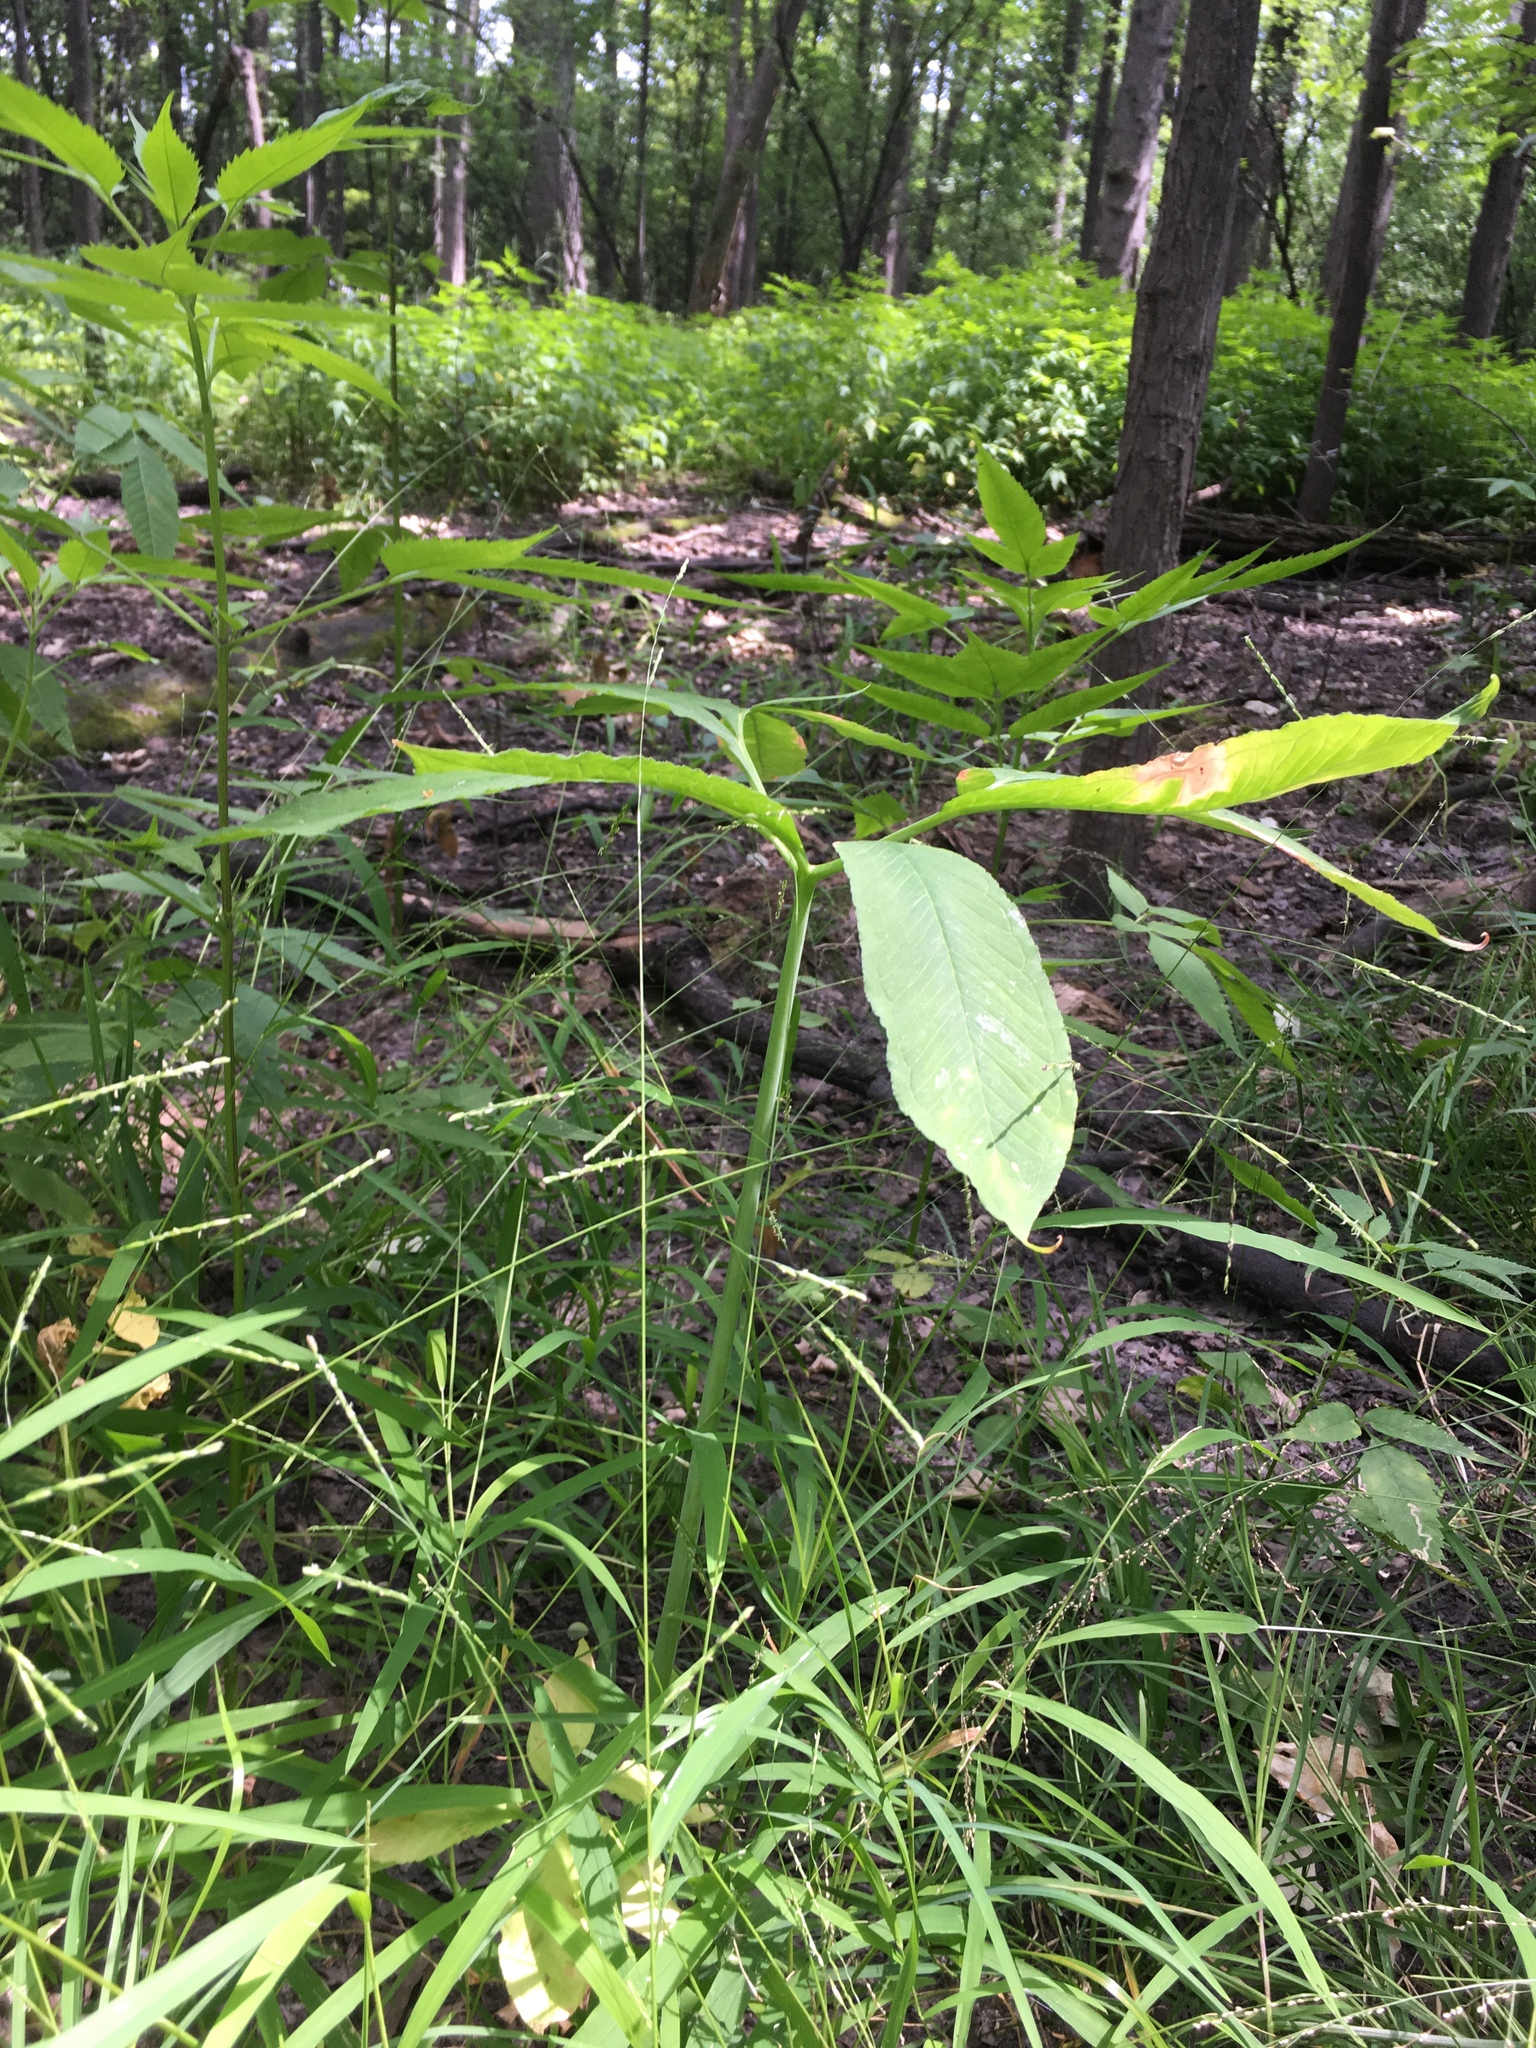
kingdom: Plantae
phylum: Tracheophyta
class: Liliopsida
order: Alismatales
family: Araceae
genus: Arisaema
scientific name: Arisaema dracontium
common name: Dragon-arum
